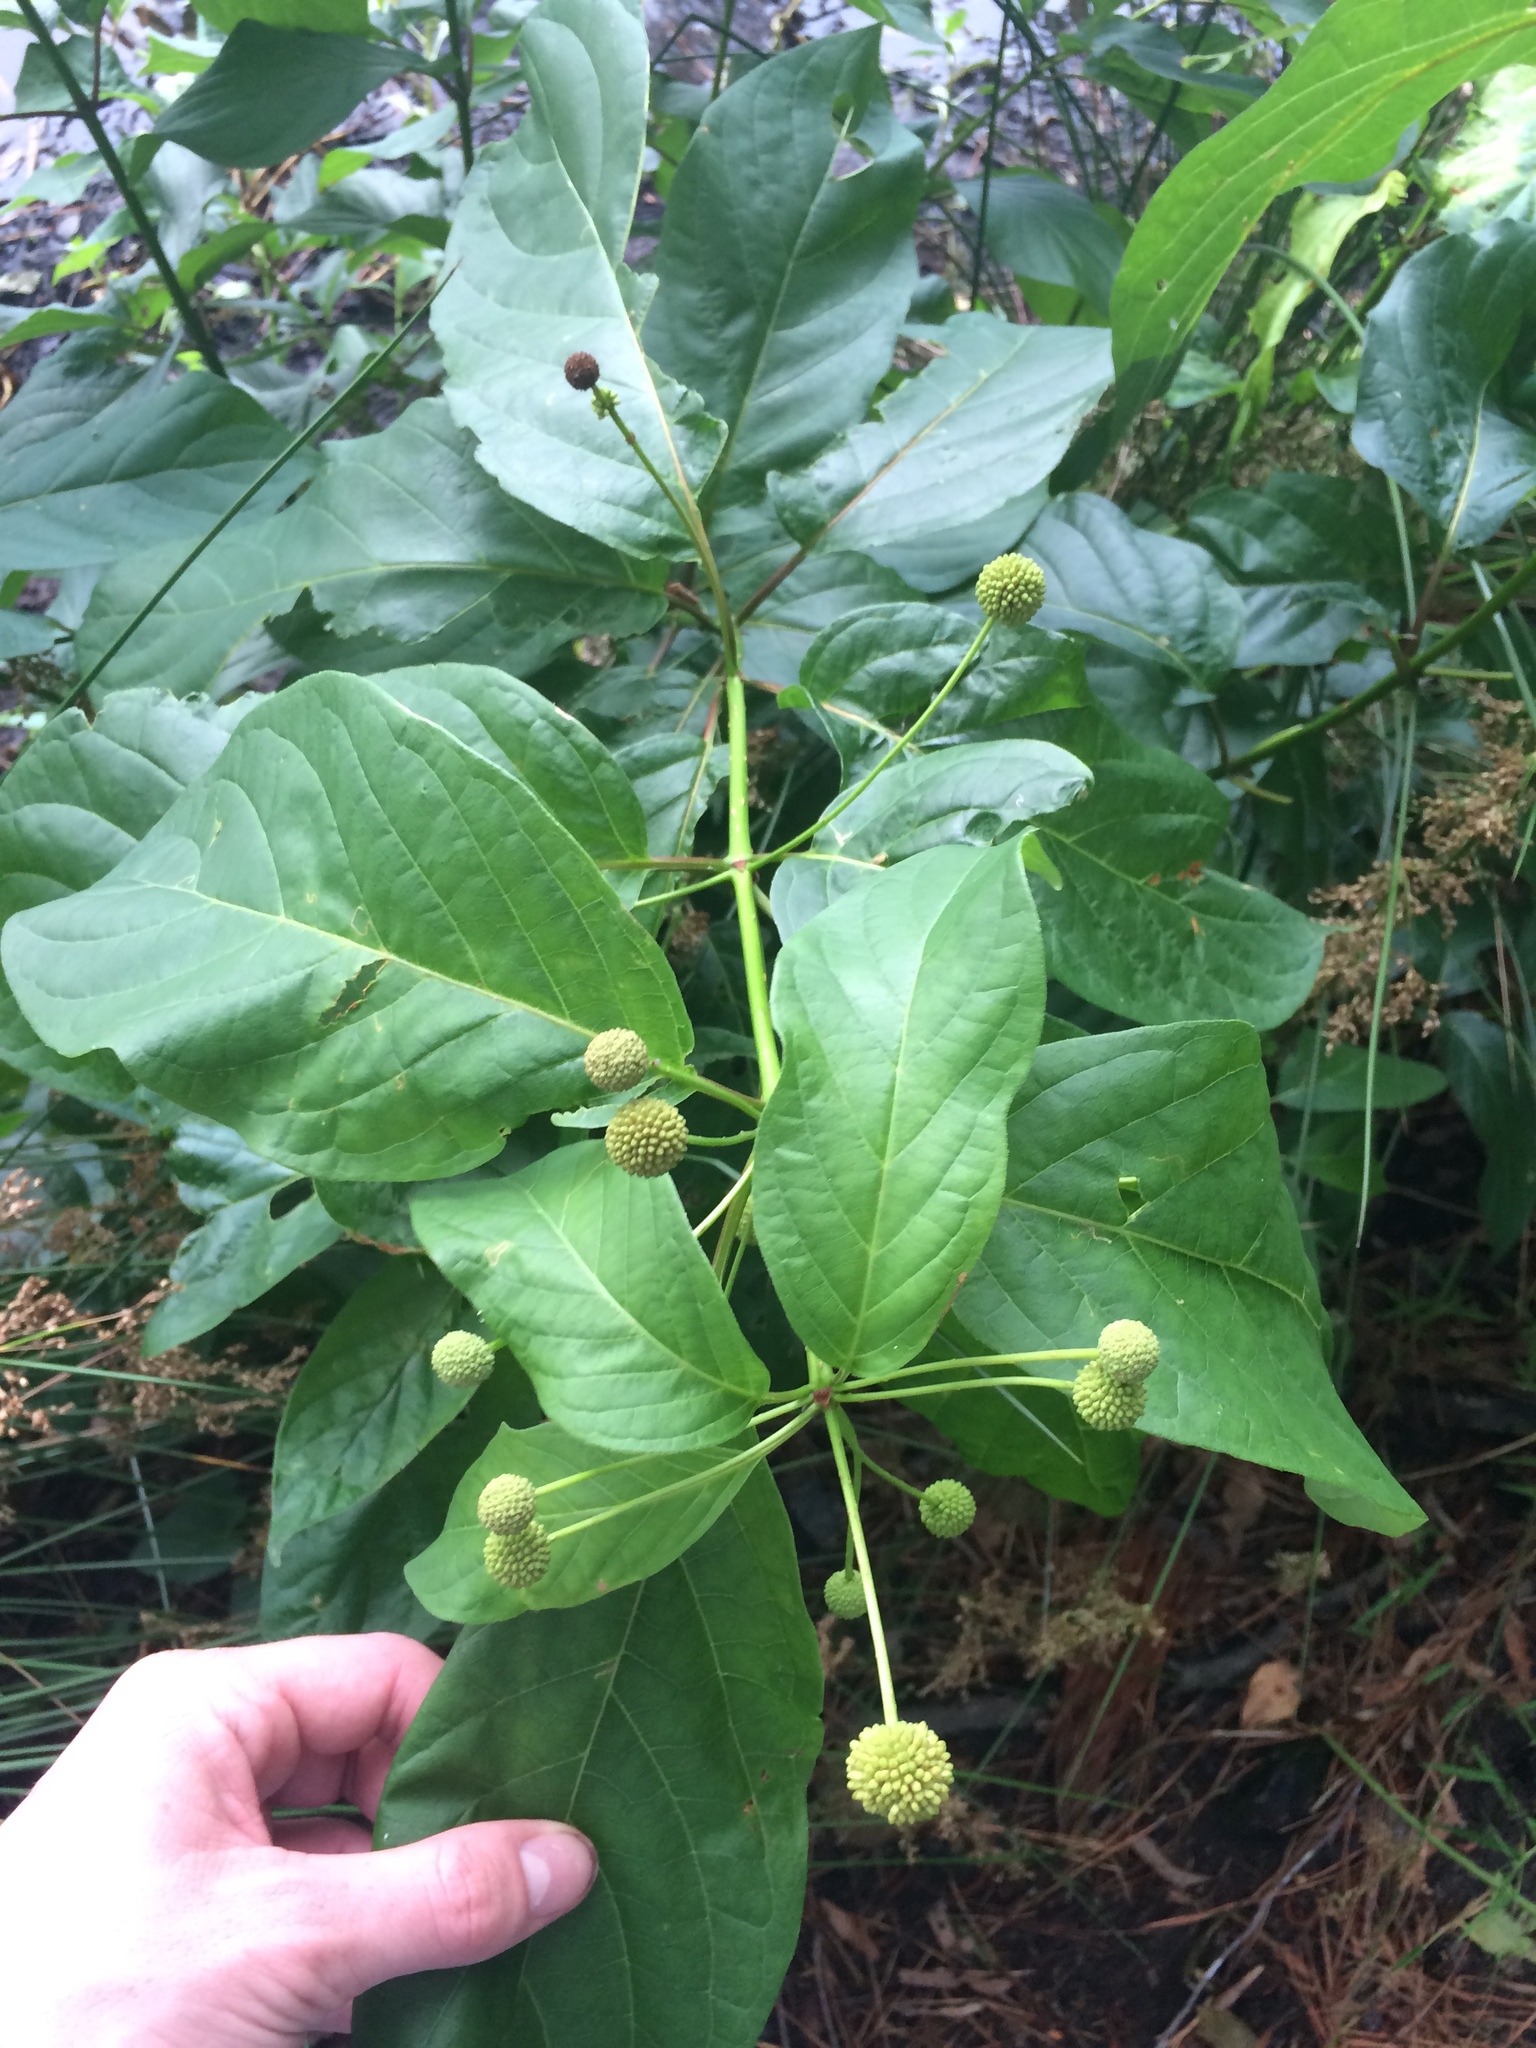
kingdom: Plantae
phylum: Tracheophyta
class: Magnoliopsida
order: Gentianales
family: Rubiaceae
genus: Cephalanthus
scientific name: Cephalanthus occidentalis
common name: Button-willow
